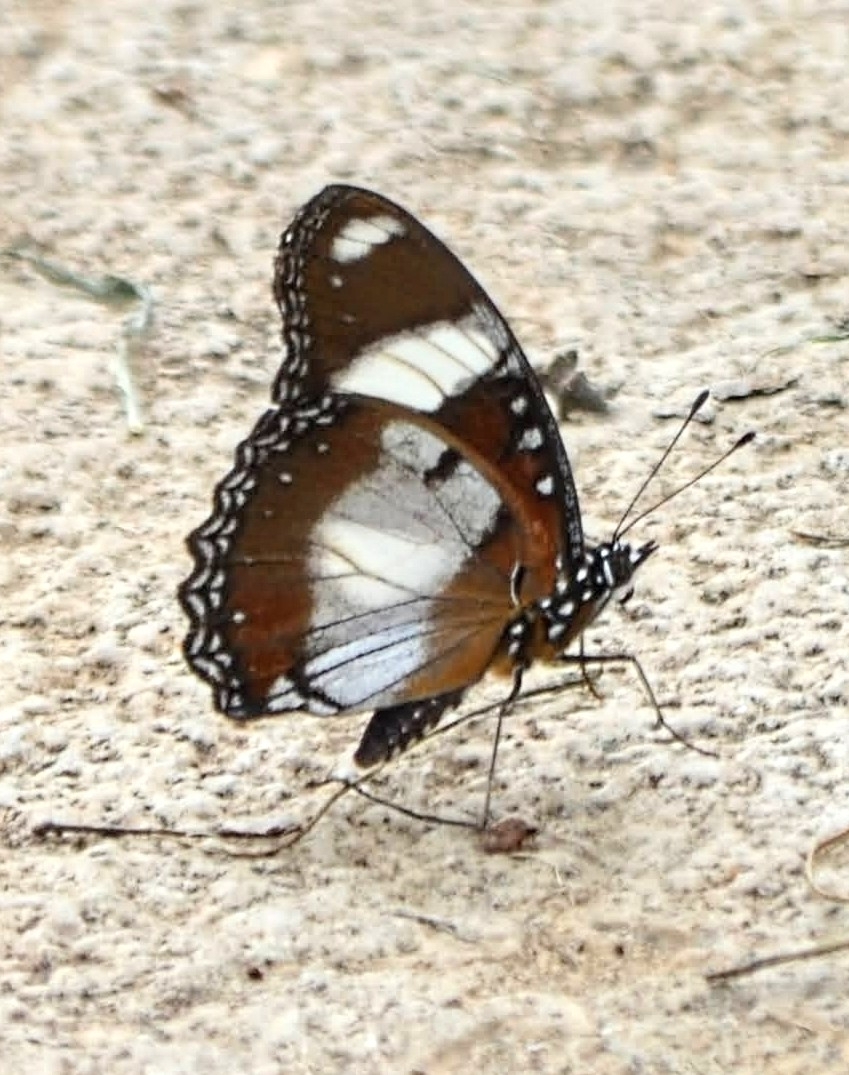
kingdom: Animalia
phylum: Arthropoda
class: Insecta
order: Lepidoptera
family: Nymphalidae
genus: Hypolimnas
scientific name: Hypolimnas misippus
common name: False plain tiger
